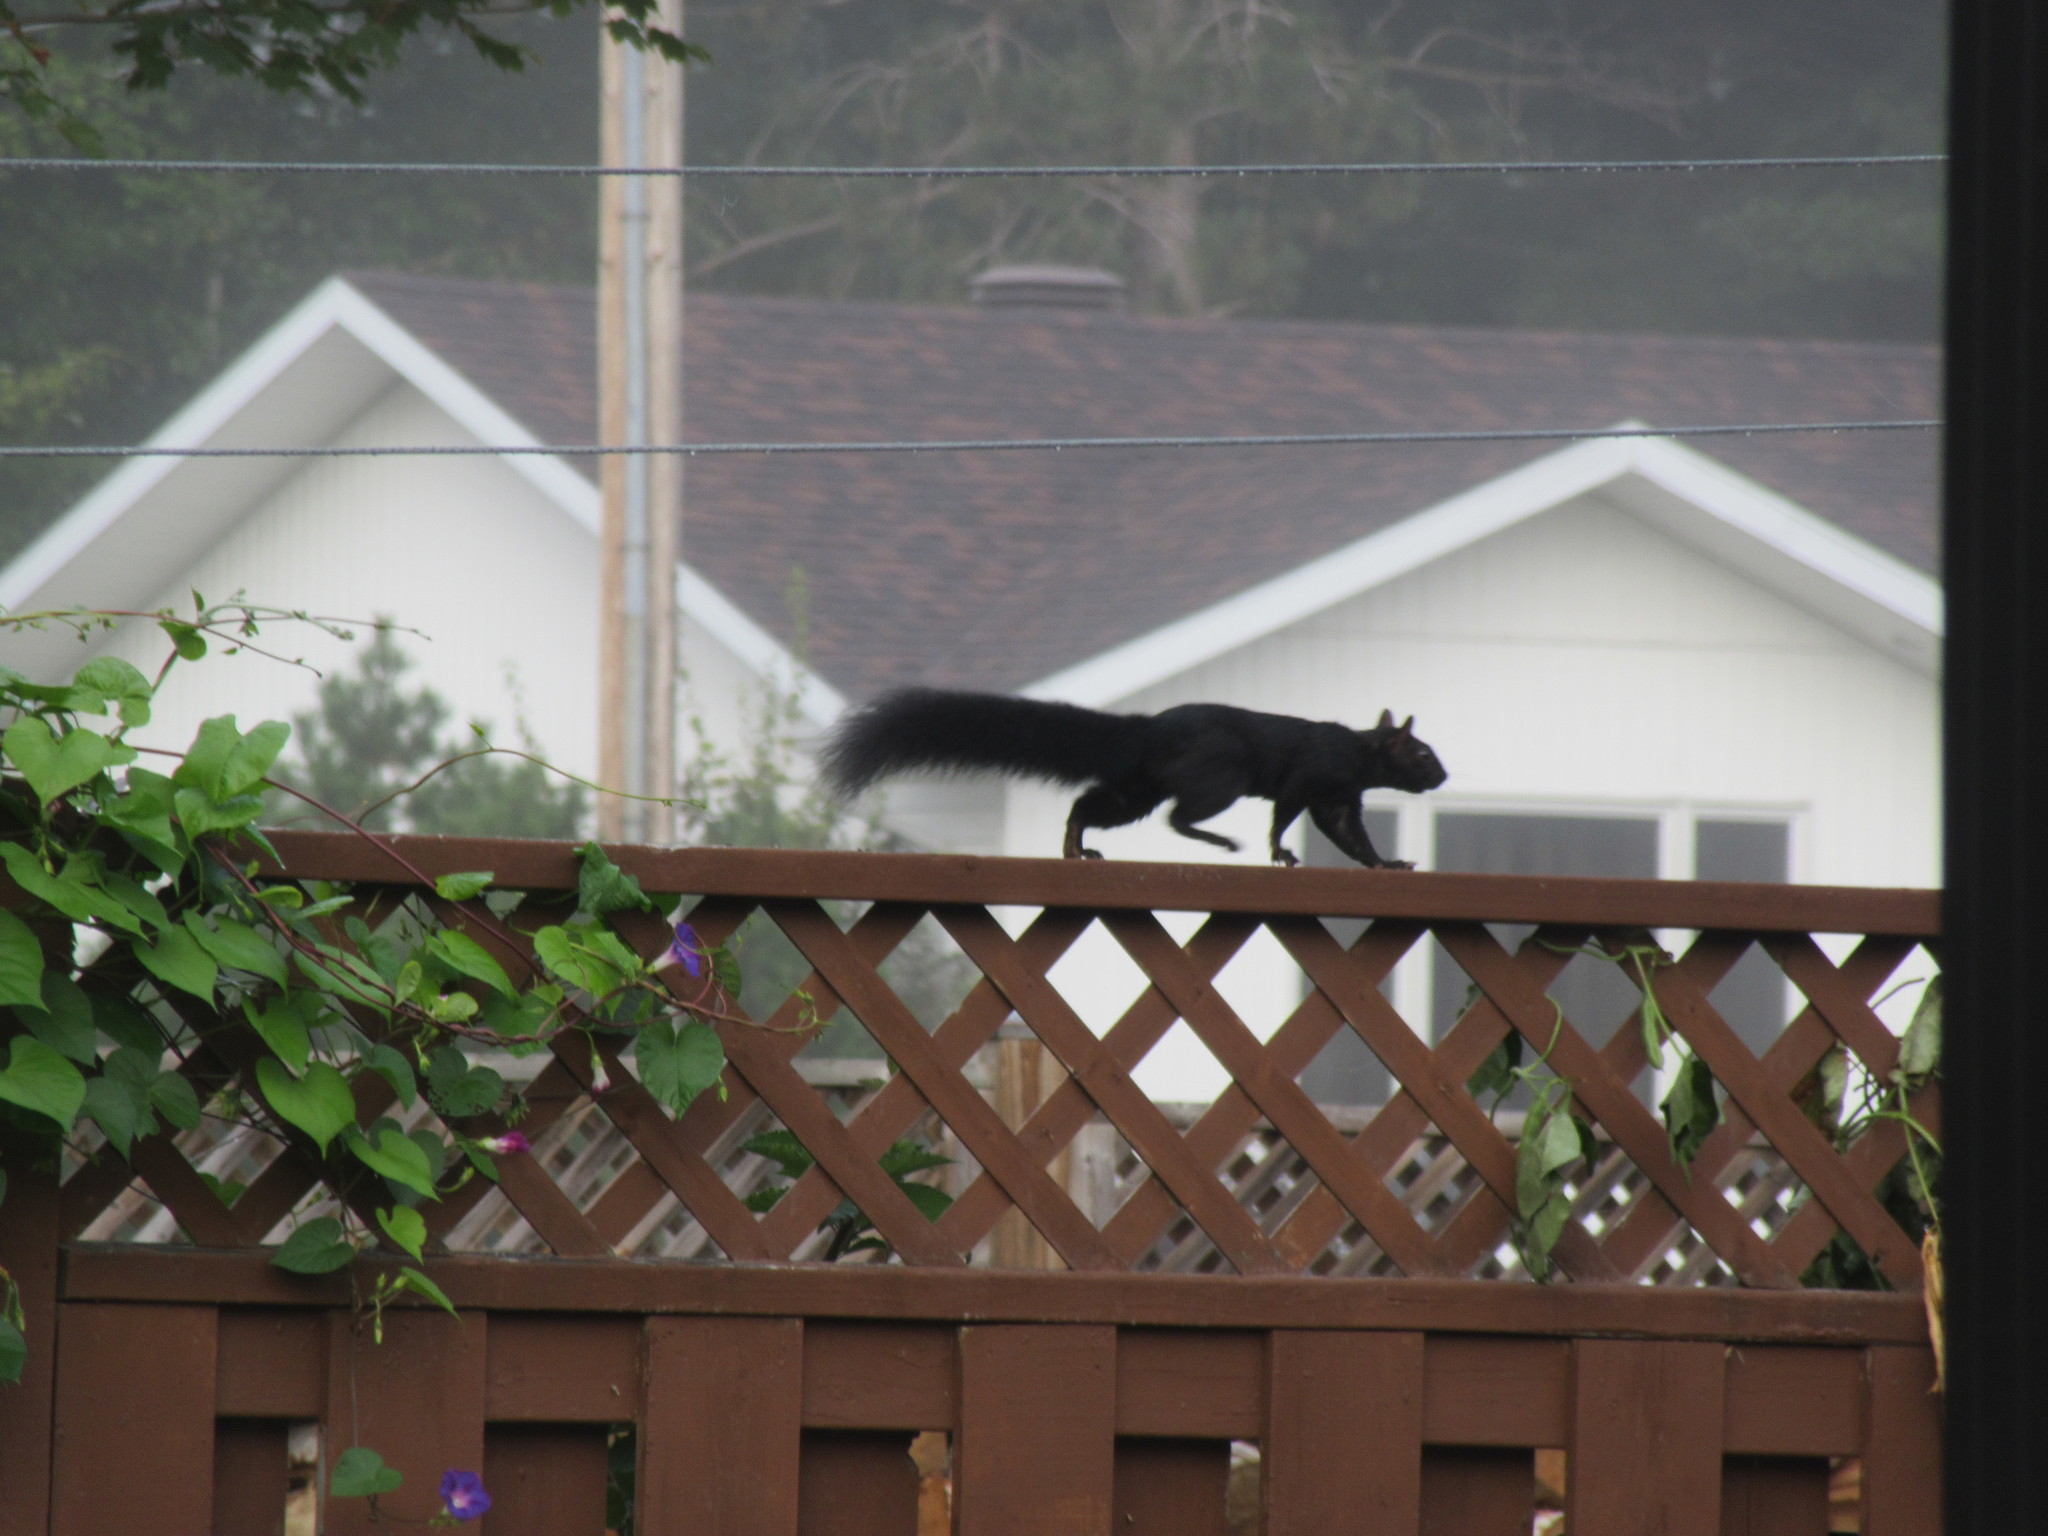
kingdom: Animalia
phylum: Chordata
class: Mammalia
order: Rodentia
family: Sciuridae
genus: Sciurus
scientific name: Sciurus carolinensis
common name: Eastern gray squirrel
